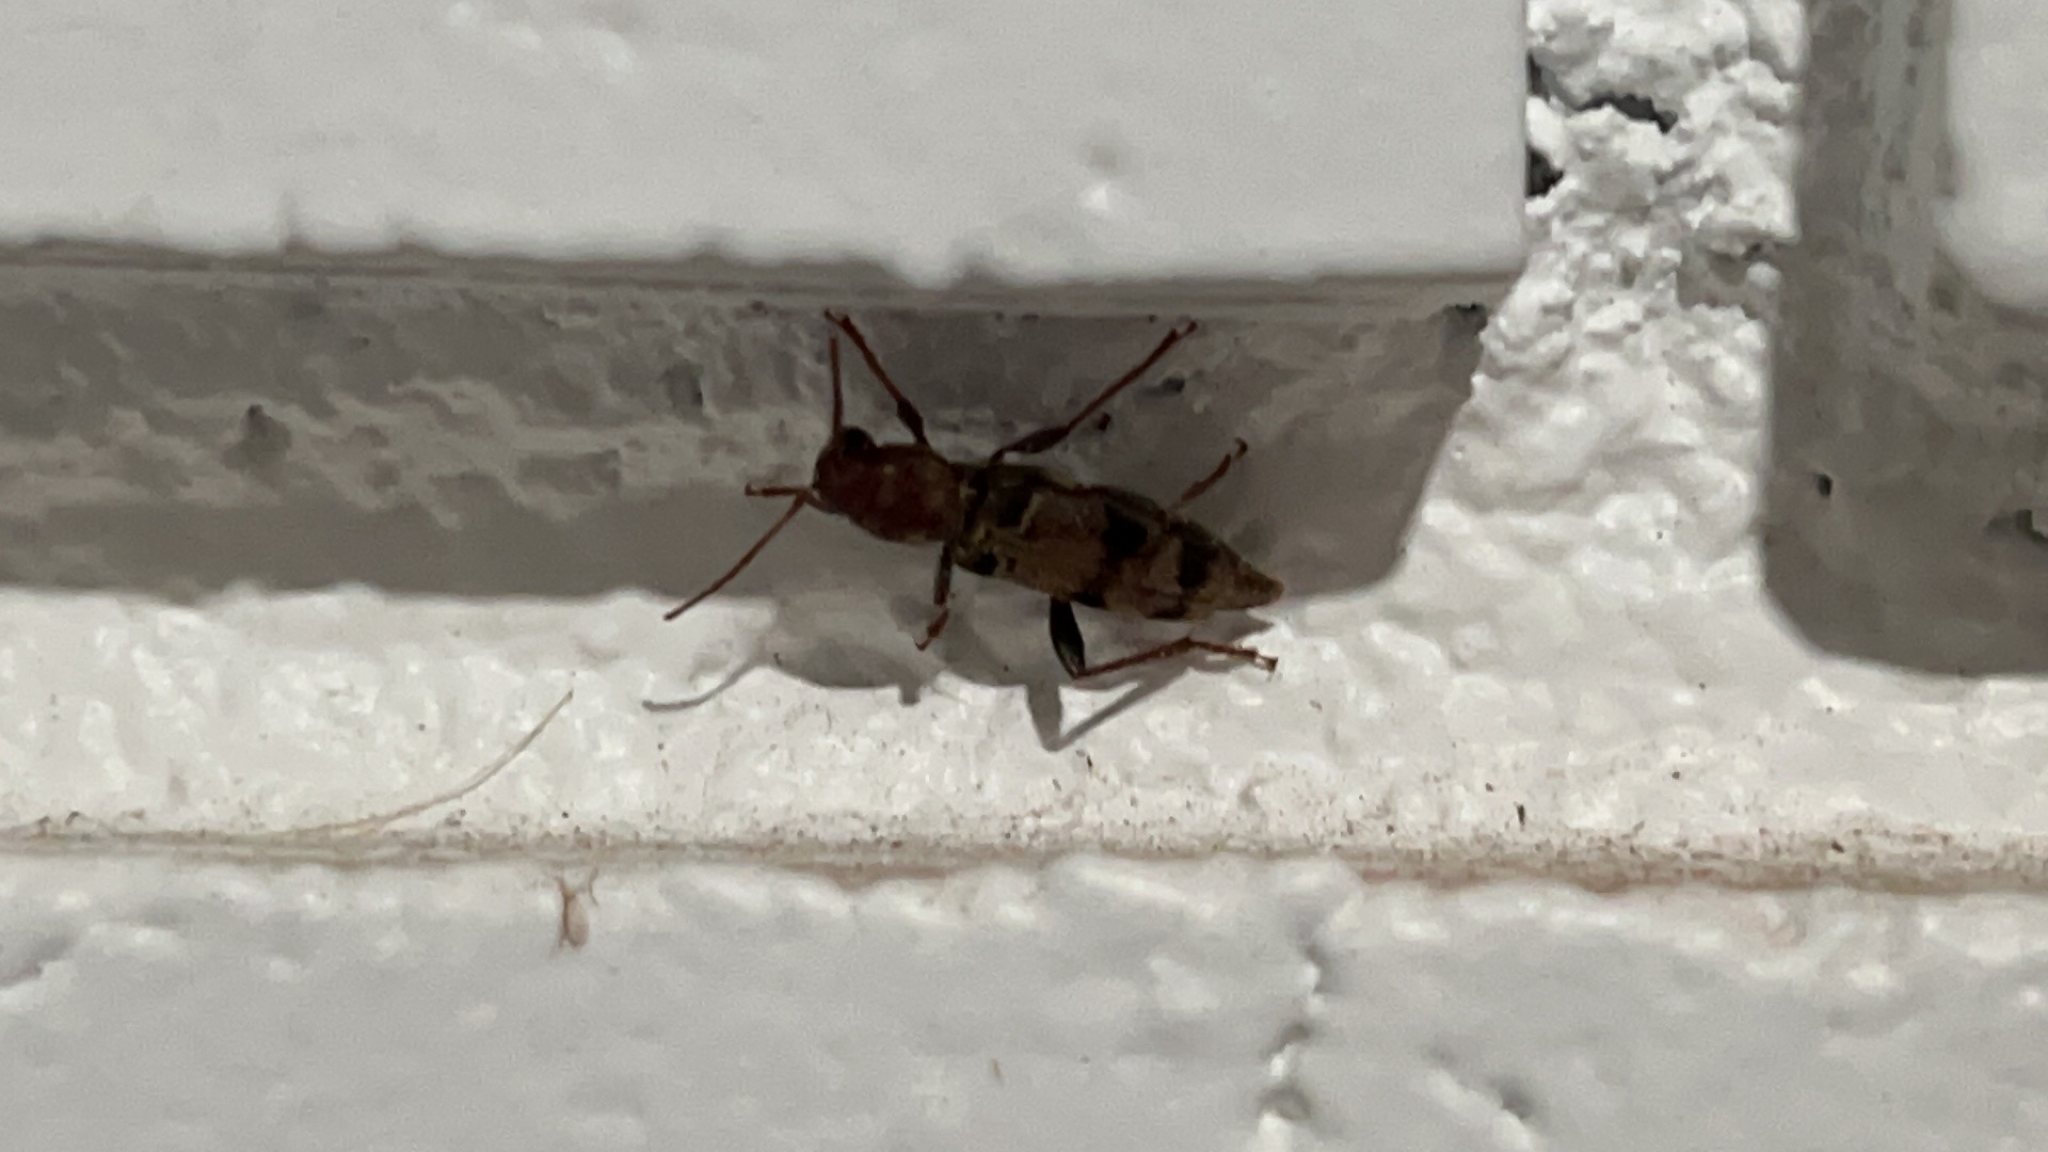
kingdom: Animalia
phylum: Arthropoda
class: Insecta
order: Coleoptera
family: Cerambycidae
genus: Xylotrechus
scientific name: Xylotrechus colonus
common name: Long-horned beetle
